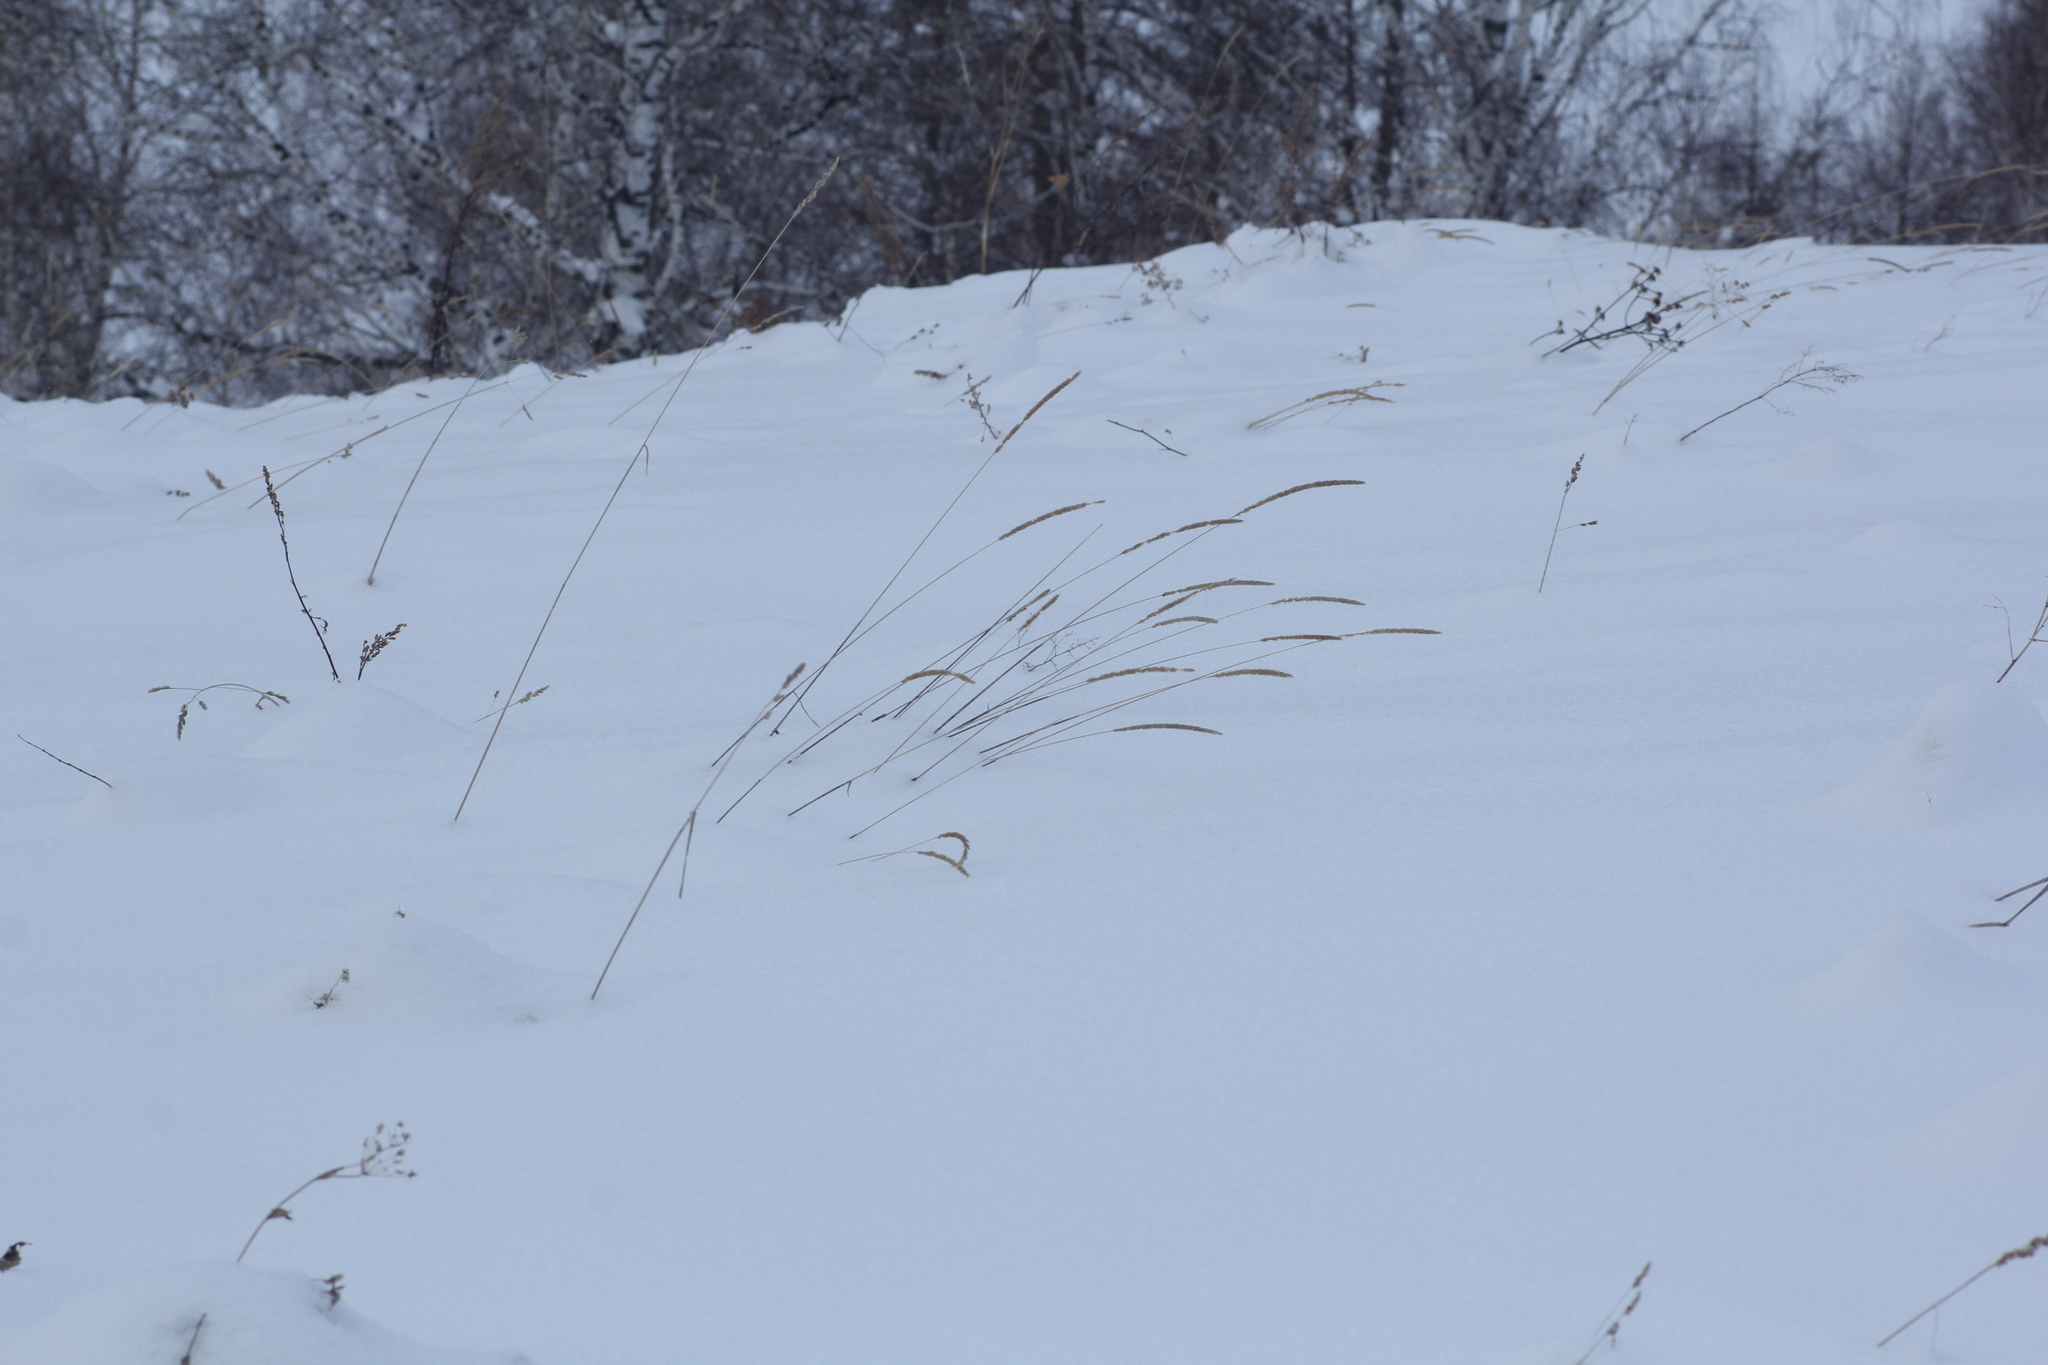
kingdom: Plantae
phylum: Tracheophyta
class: Liliopsida
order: Poales
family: Poaceae
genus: Phleum
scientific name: Phleum phleoides
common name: Purple-stem cat's-tail
